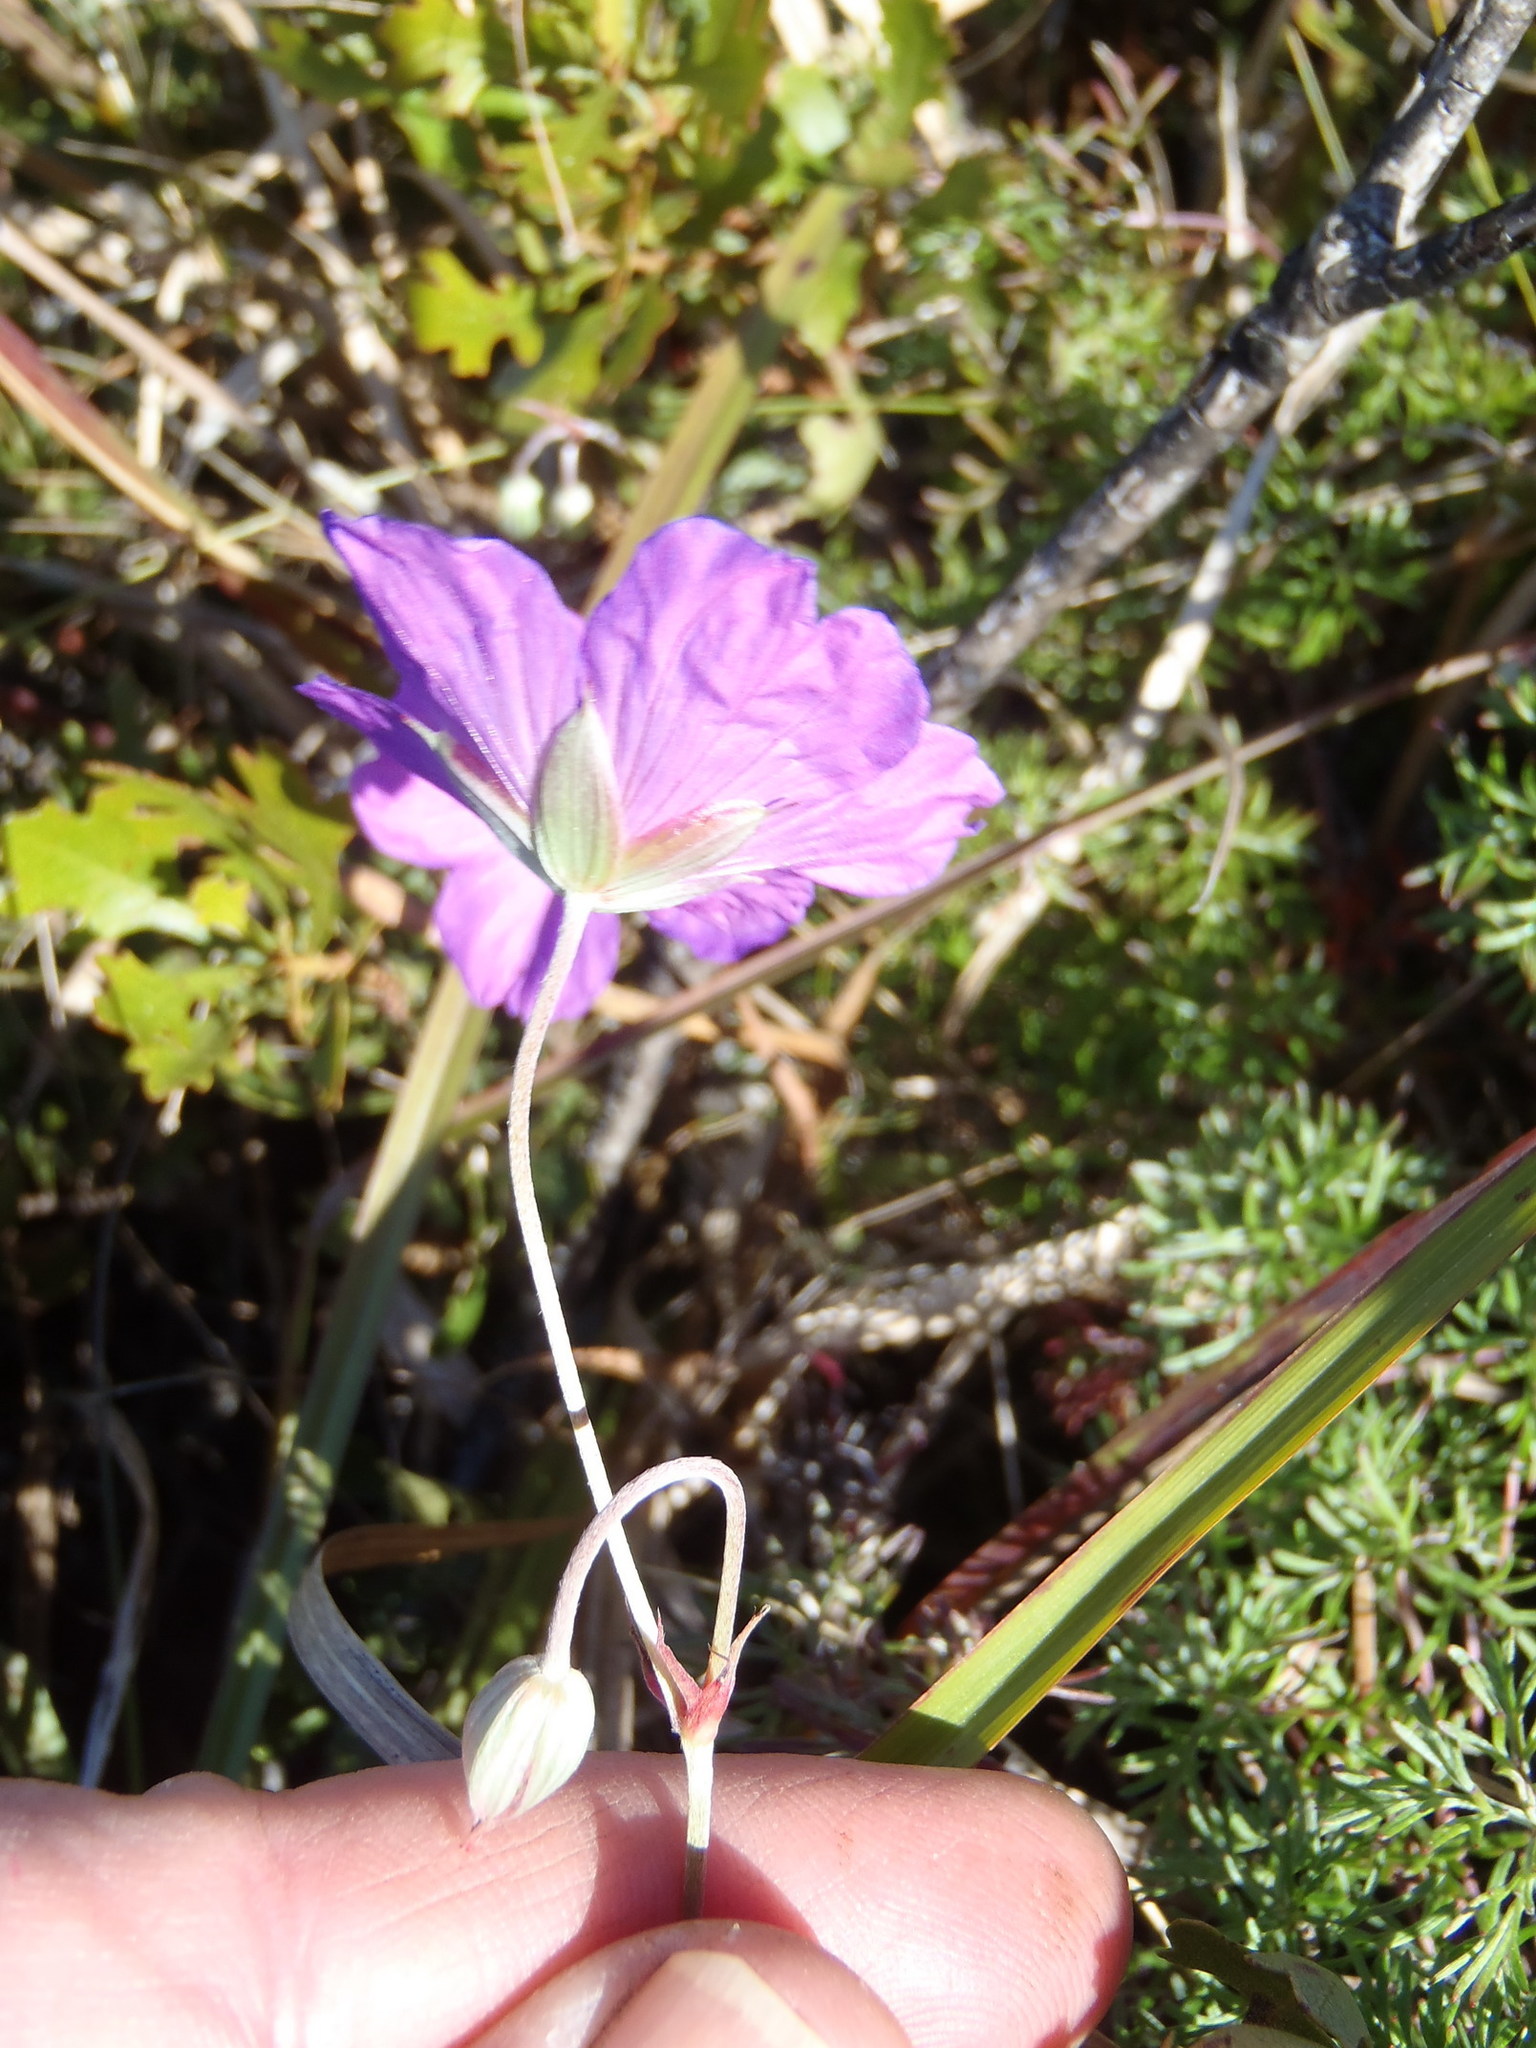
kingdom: Plantae
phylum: Tracheophyta
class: Magnoliopsida
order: Geraniales
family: Geraniaceae
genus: Geranium
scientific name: Geranium incanum
